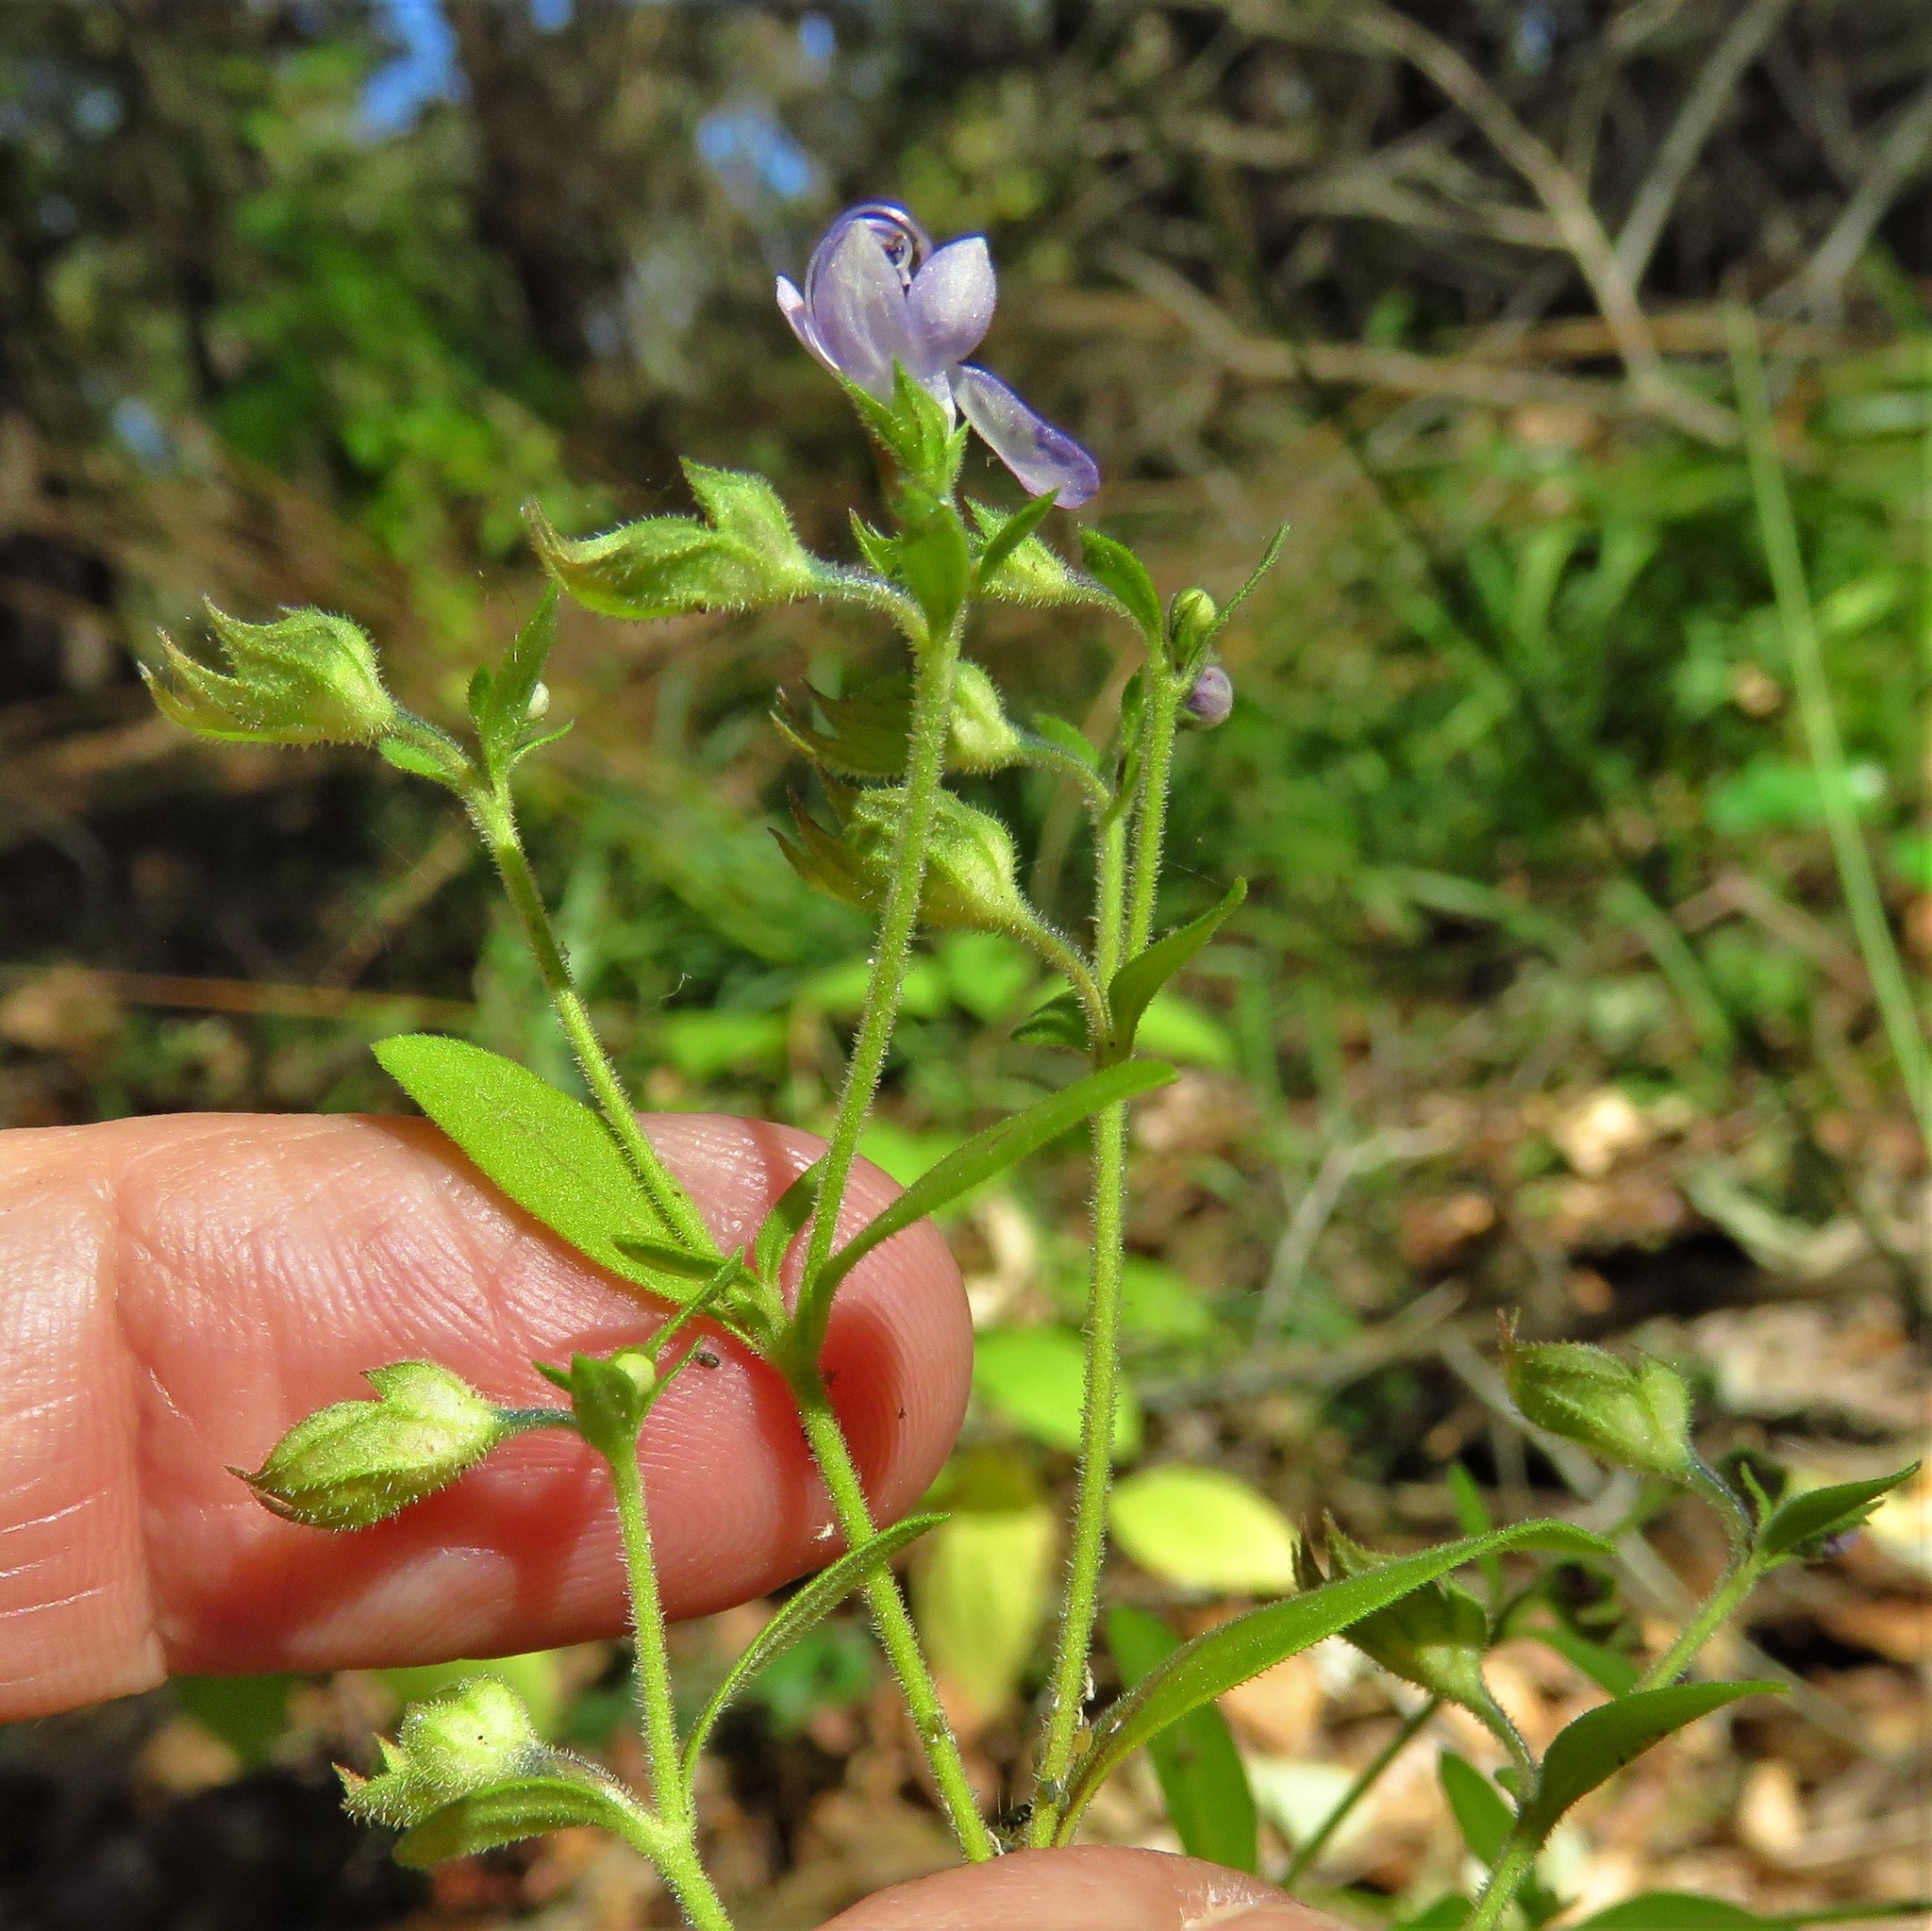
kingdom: Plantae
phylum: Tracheophyta
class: Magnoliopsida
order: Lamiales
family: Lamiaceae
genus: Trichostema
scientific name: Trichostema dichotomum
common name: Bastard pennyroyal
